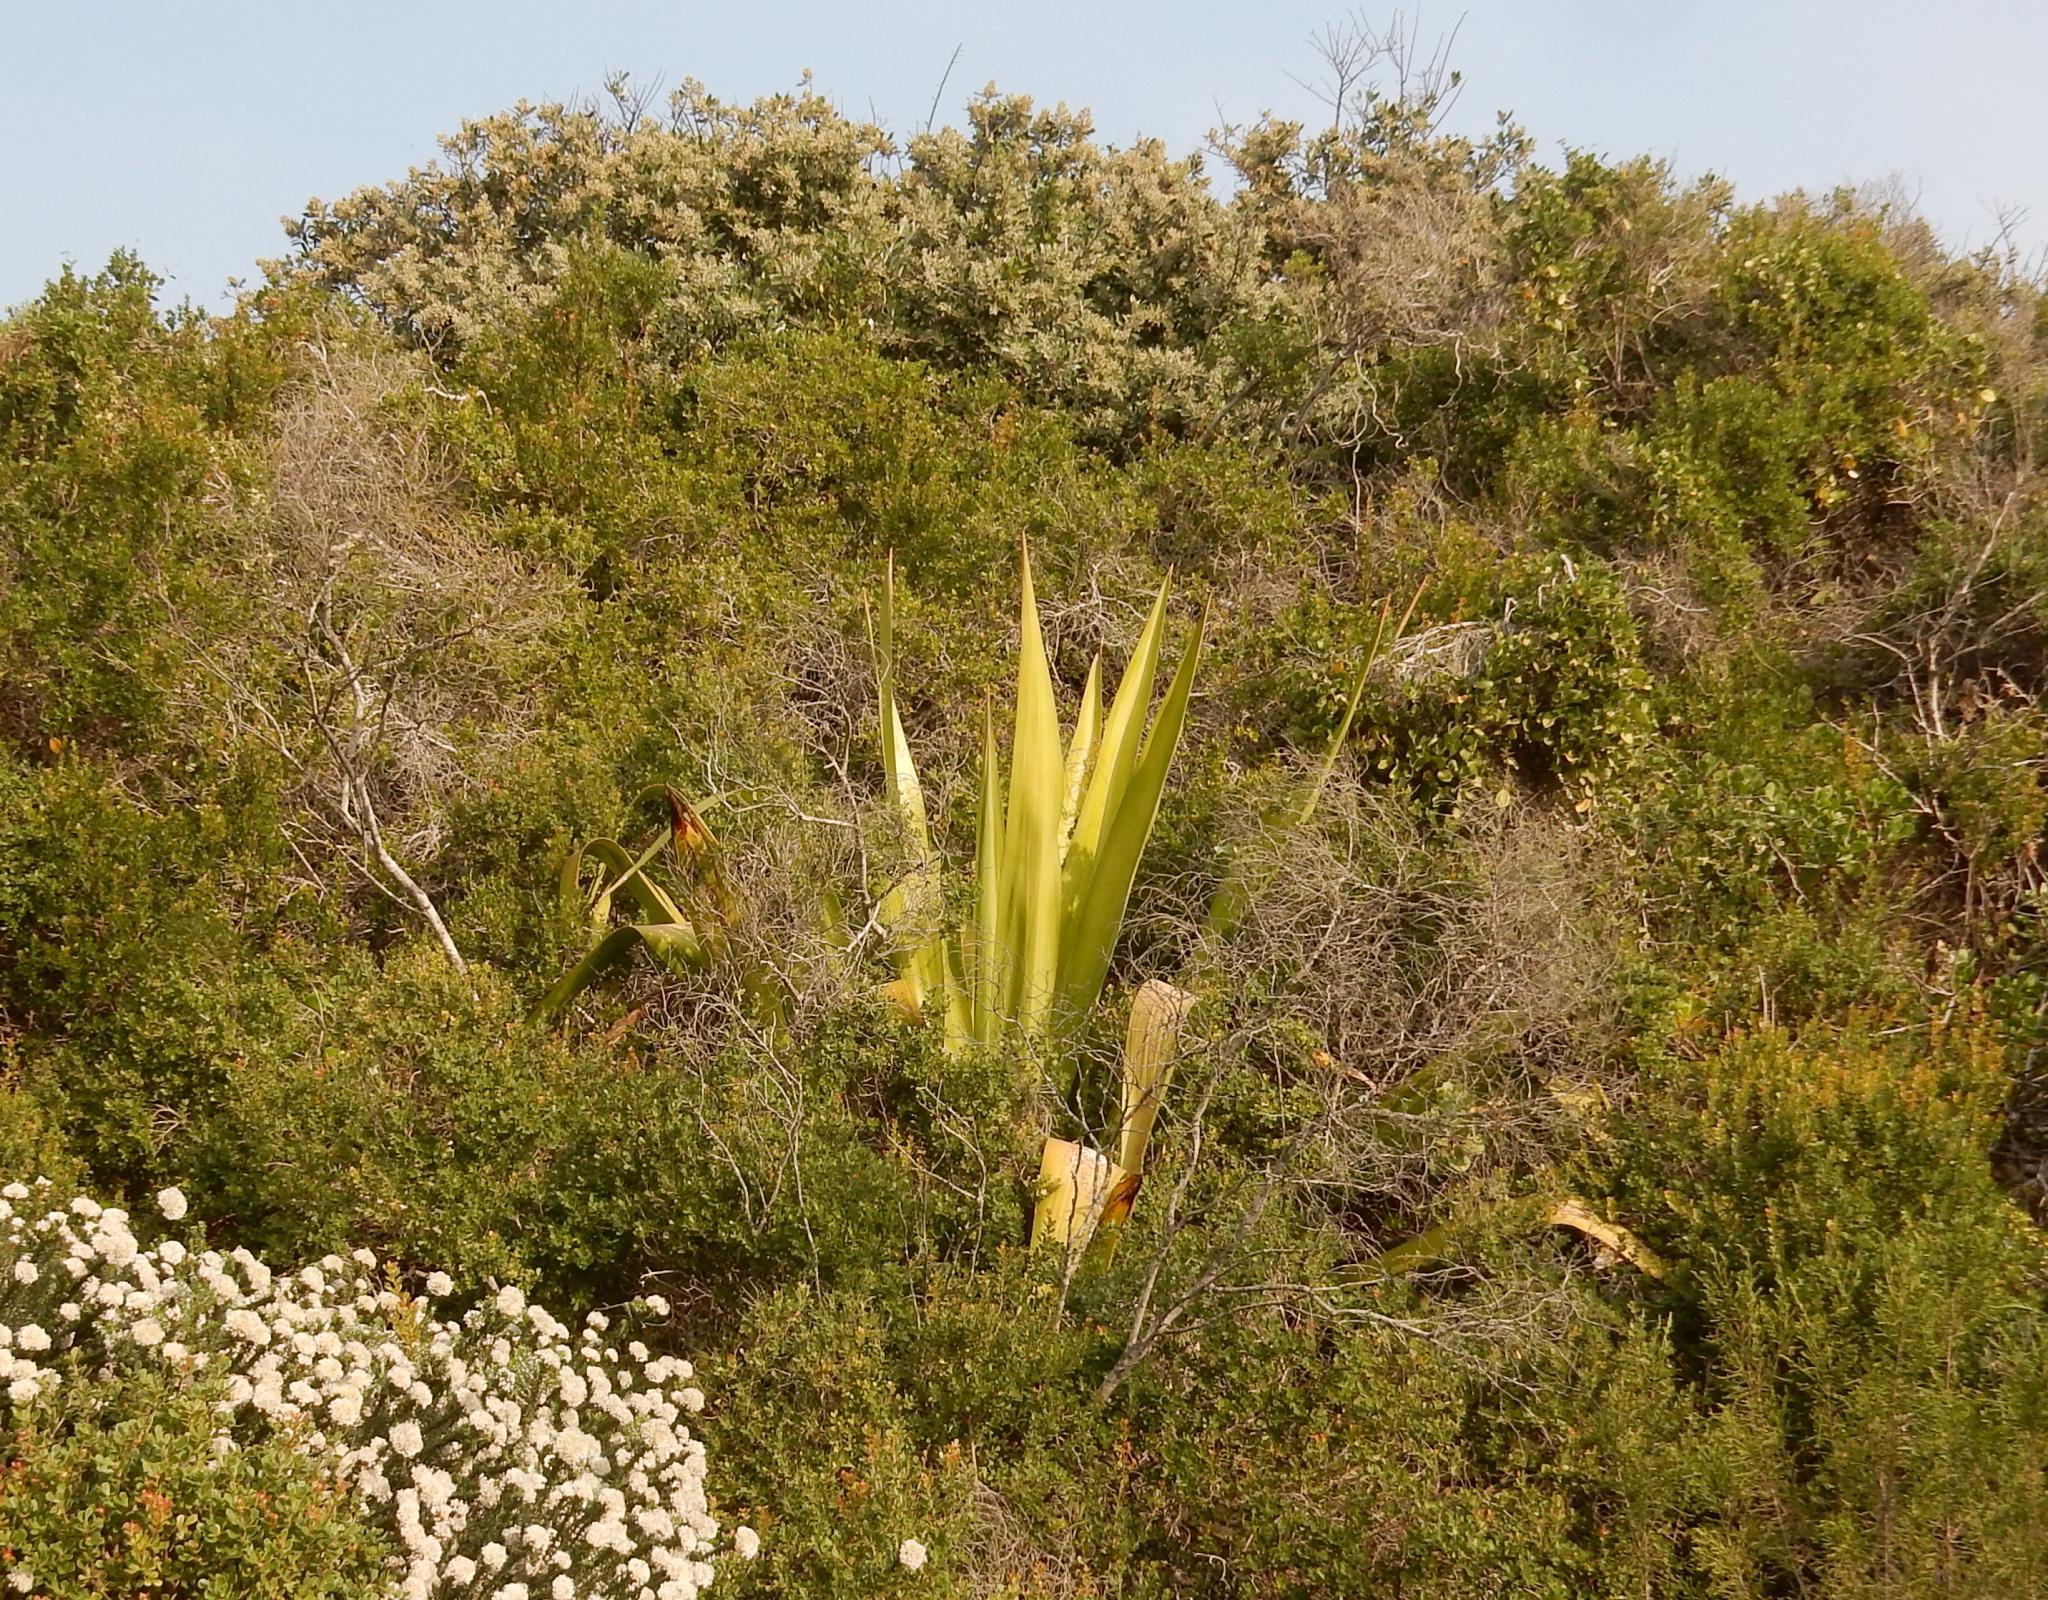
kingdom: Plantae
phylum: Tracheophyta
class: Liliopsida
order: Asparagales
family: Asparagaceae
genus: Furcraea
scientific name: Furcraea foetida
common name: Mauritius hemp
